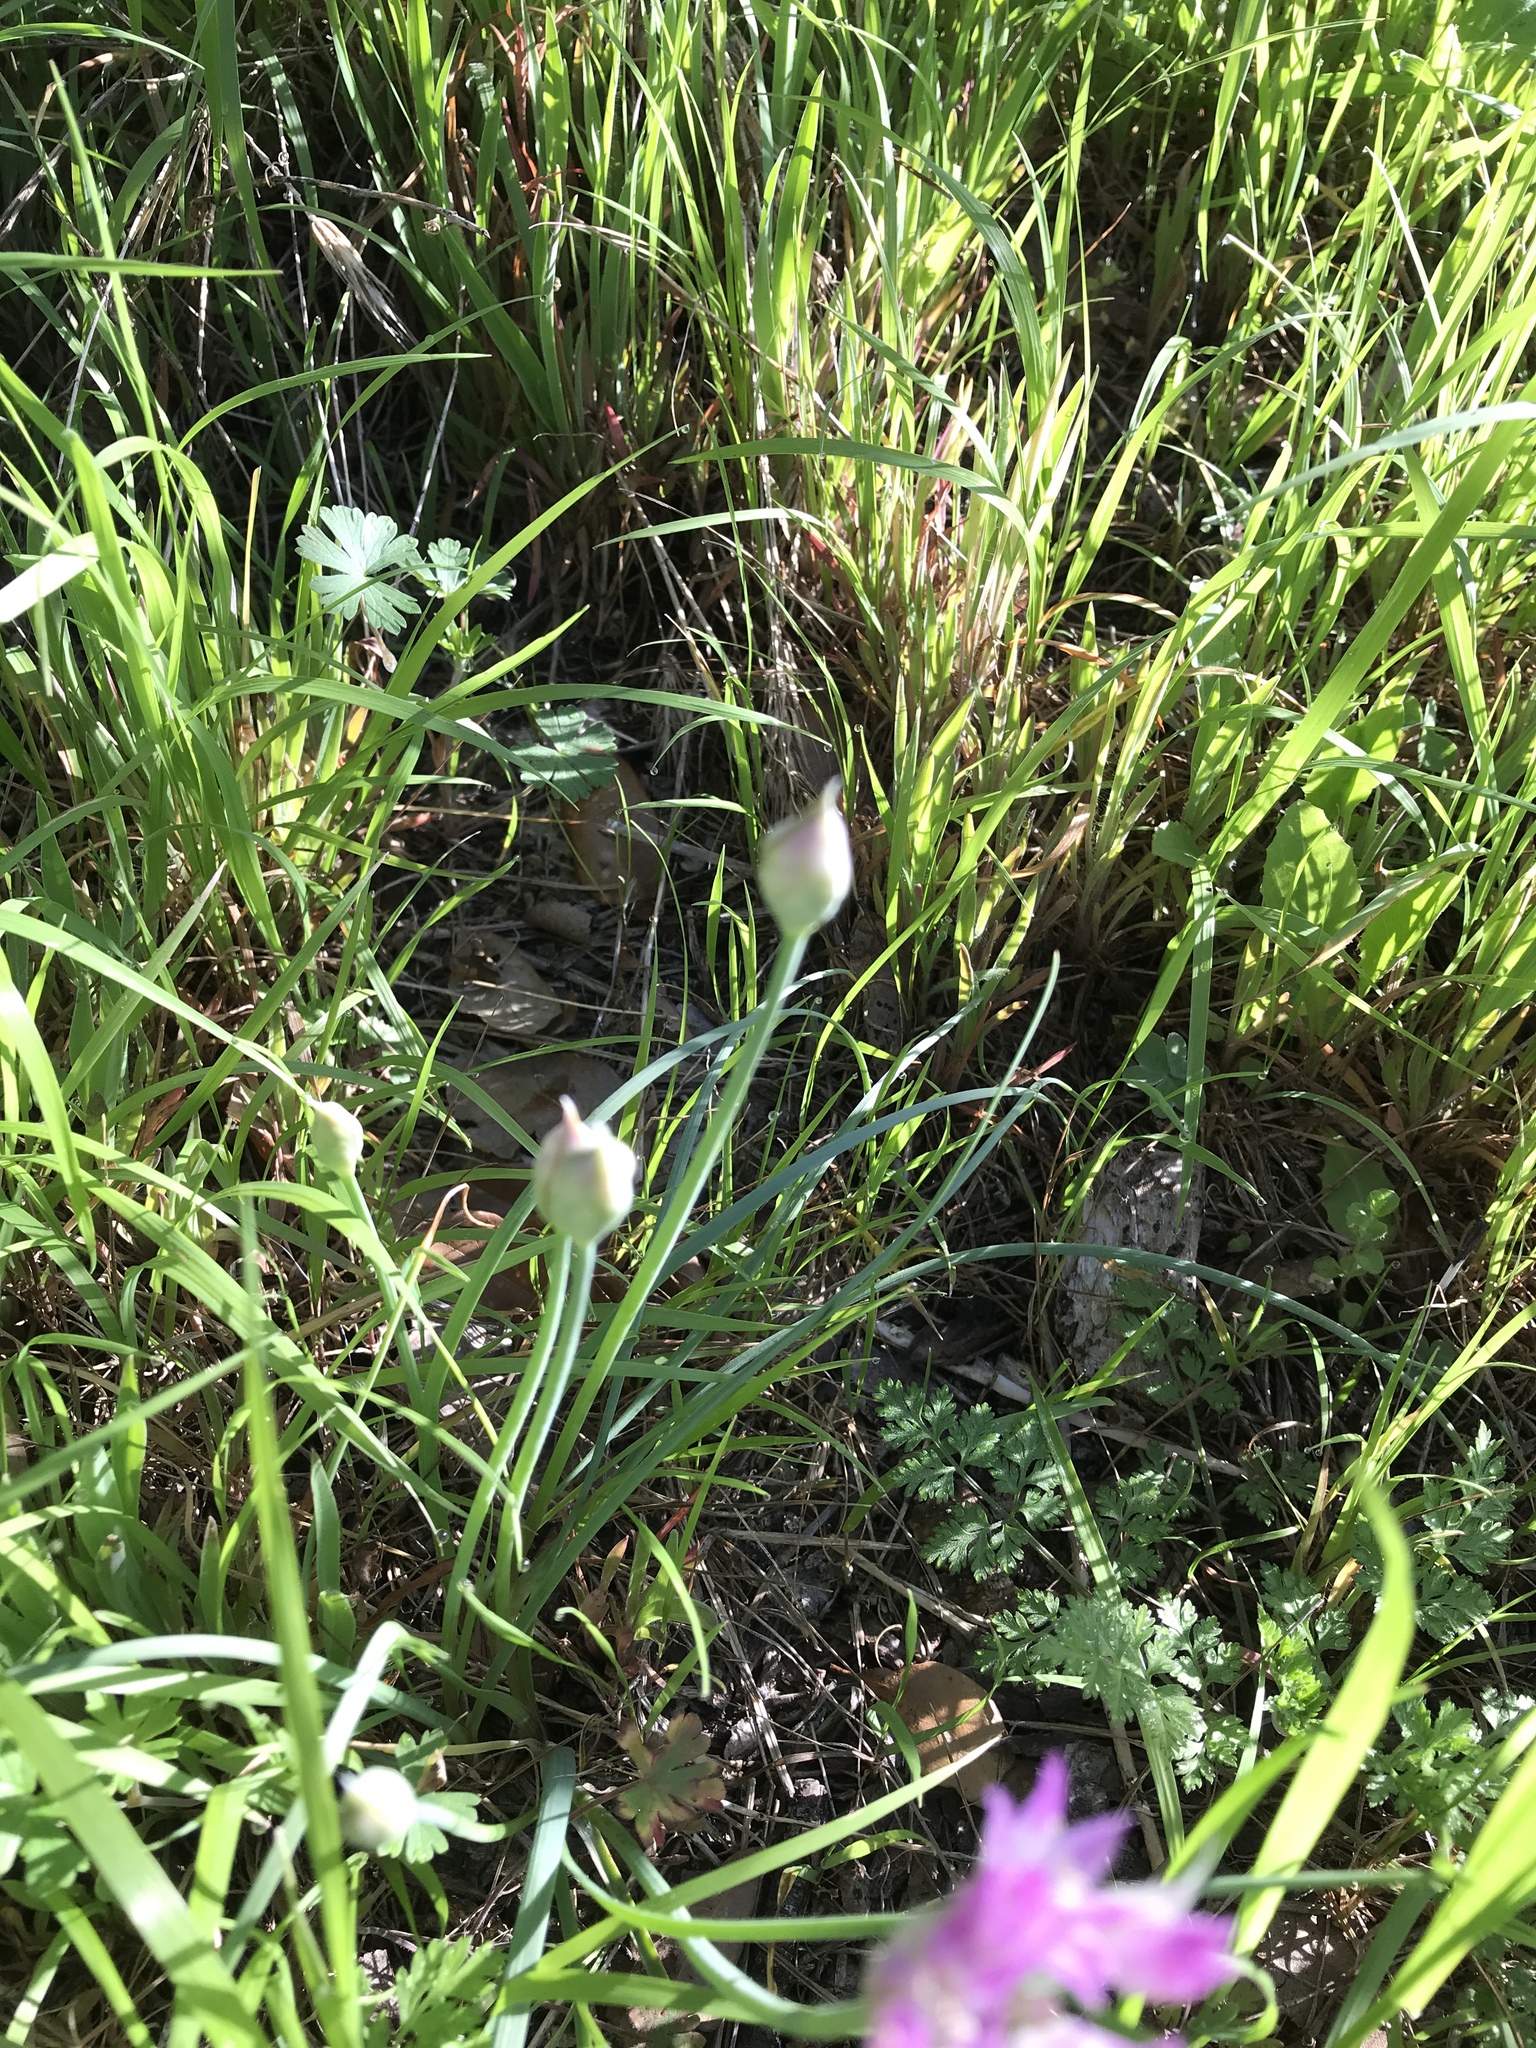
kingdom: Plantae
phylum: Tracheophyta
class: Liliopsida
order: Asparagales
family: Amaryllidaceae
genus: Allium
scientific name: Allium drummondii
